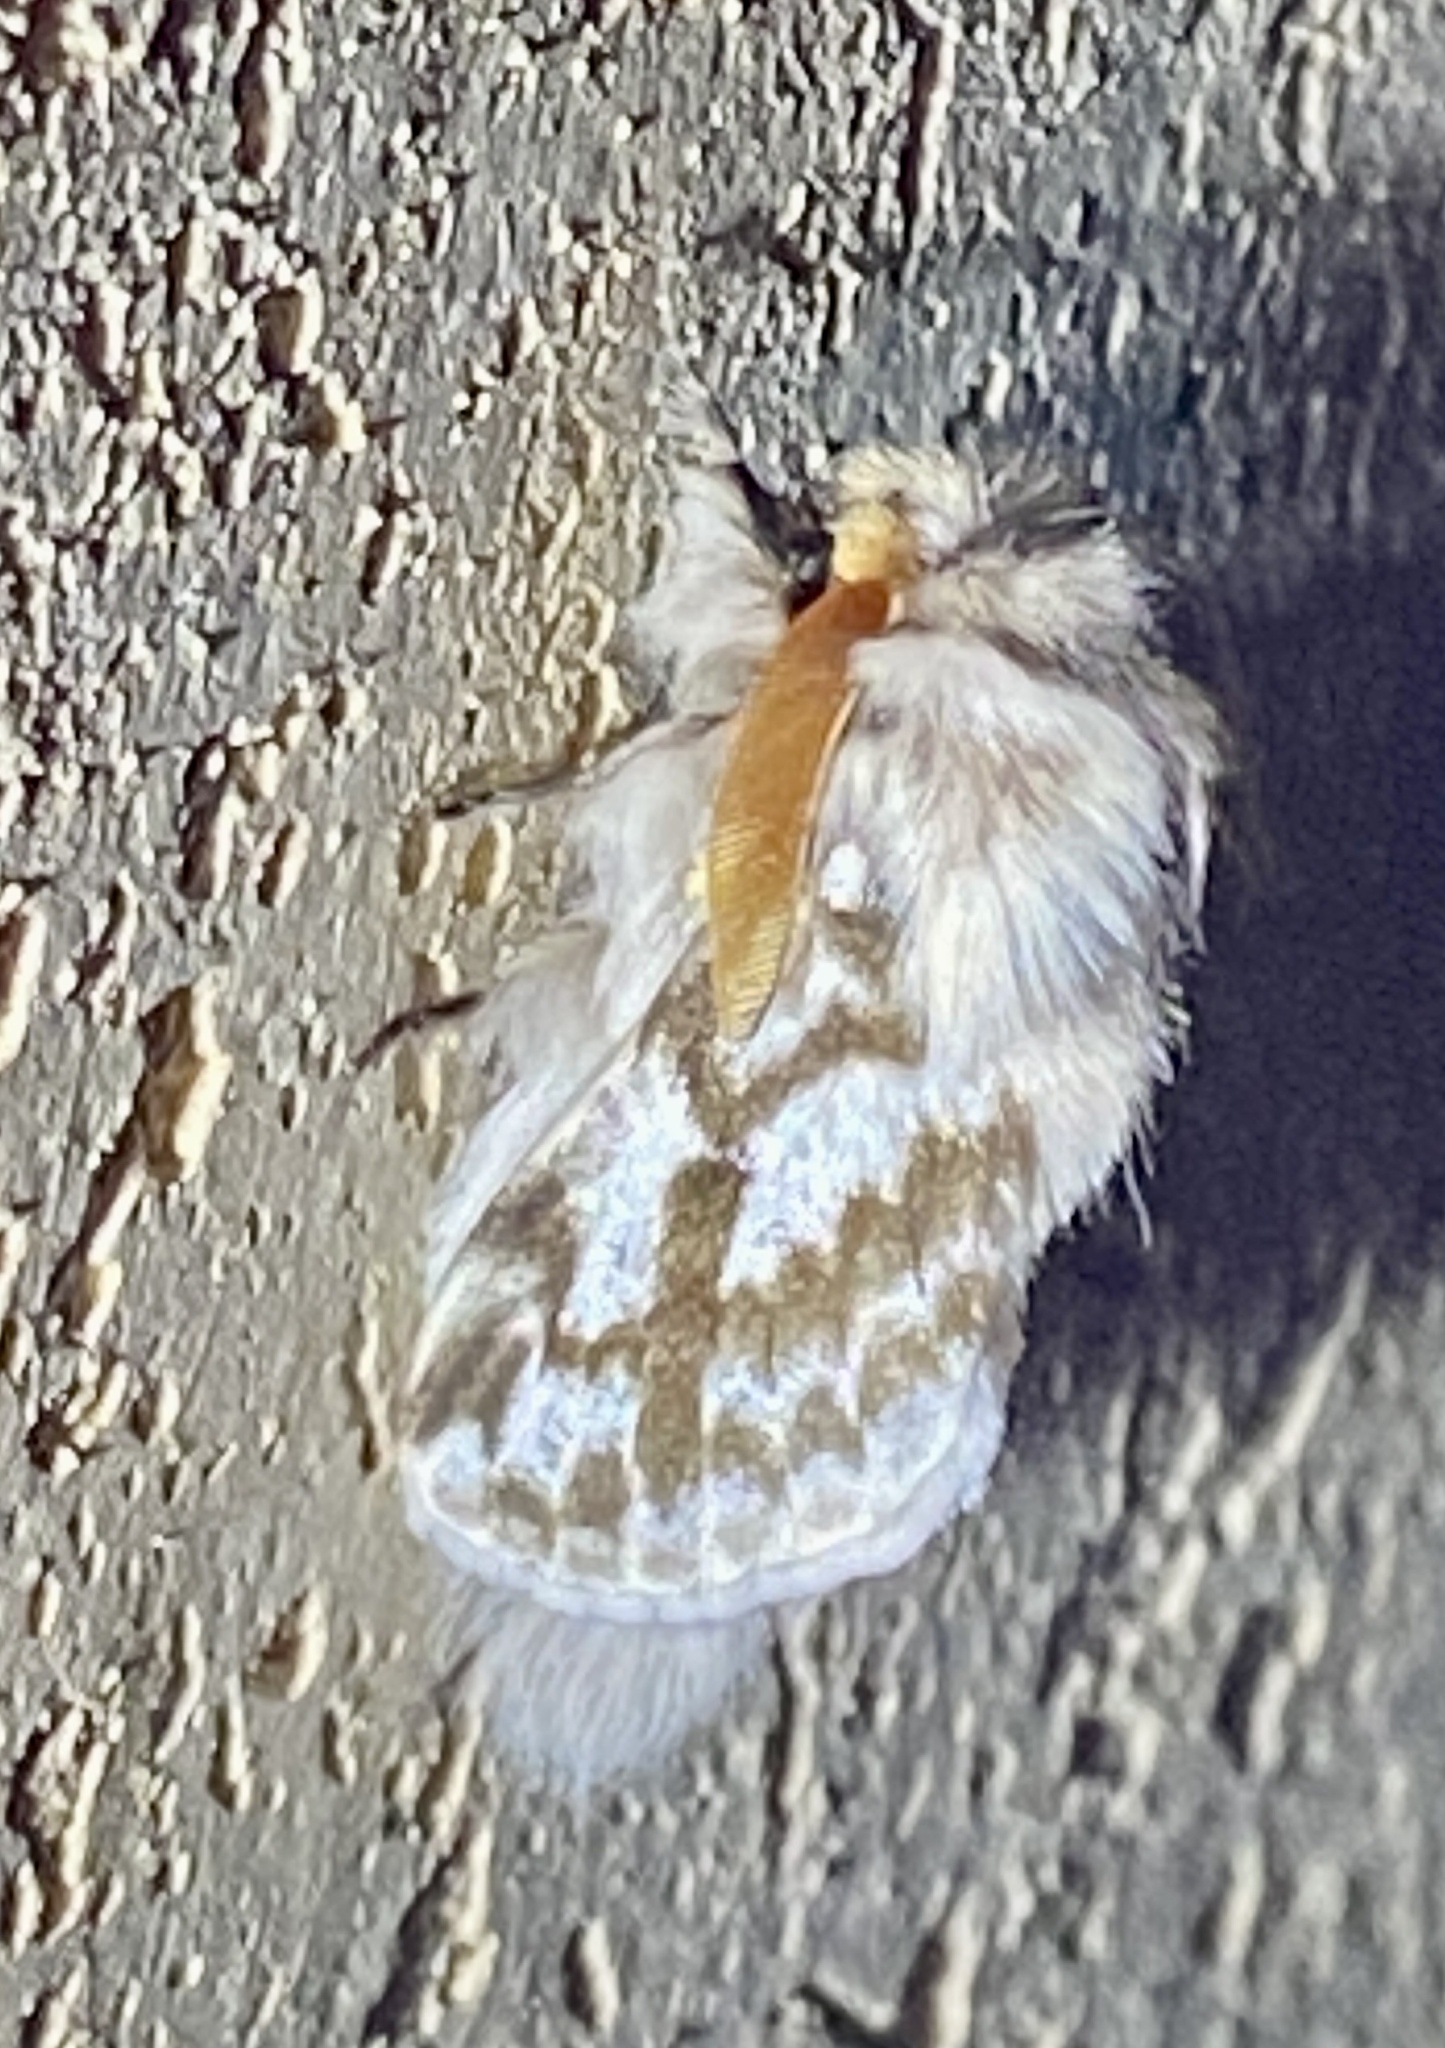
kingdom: Animalia
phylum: Arthropoda
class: Insecta
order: Lepidoptera
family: Lasiocampidae
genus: Pernattia
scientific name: Pernattia chlorophragma
